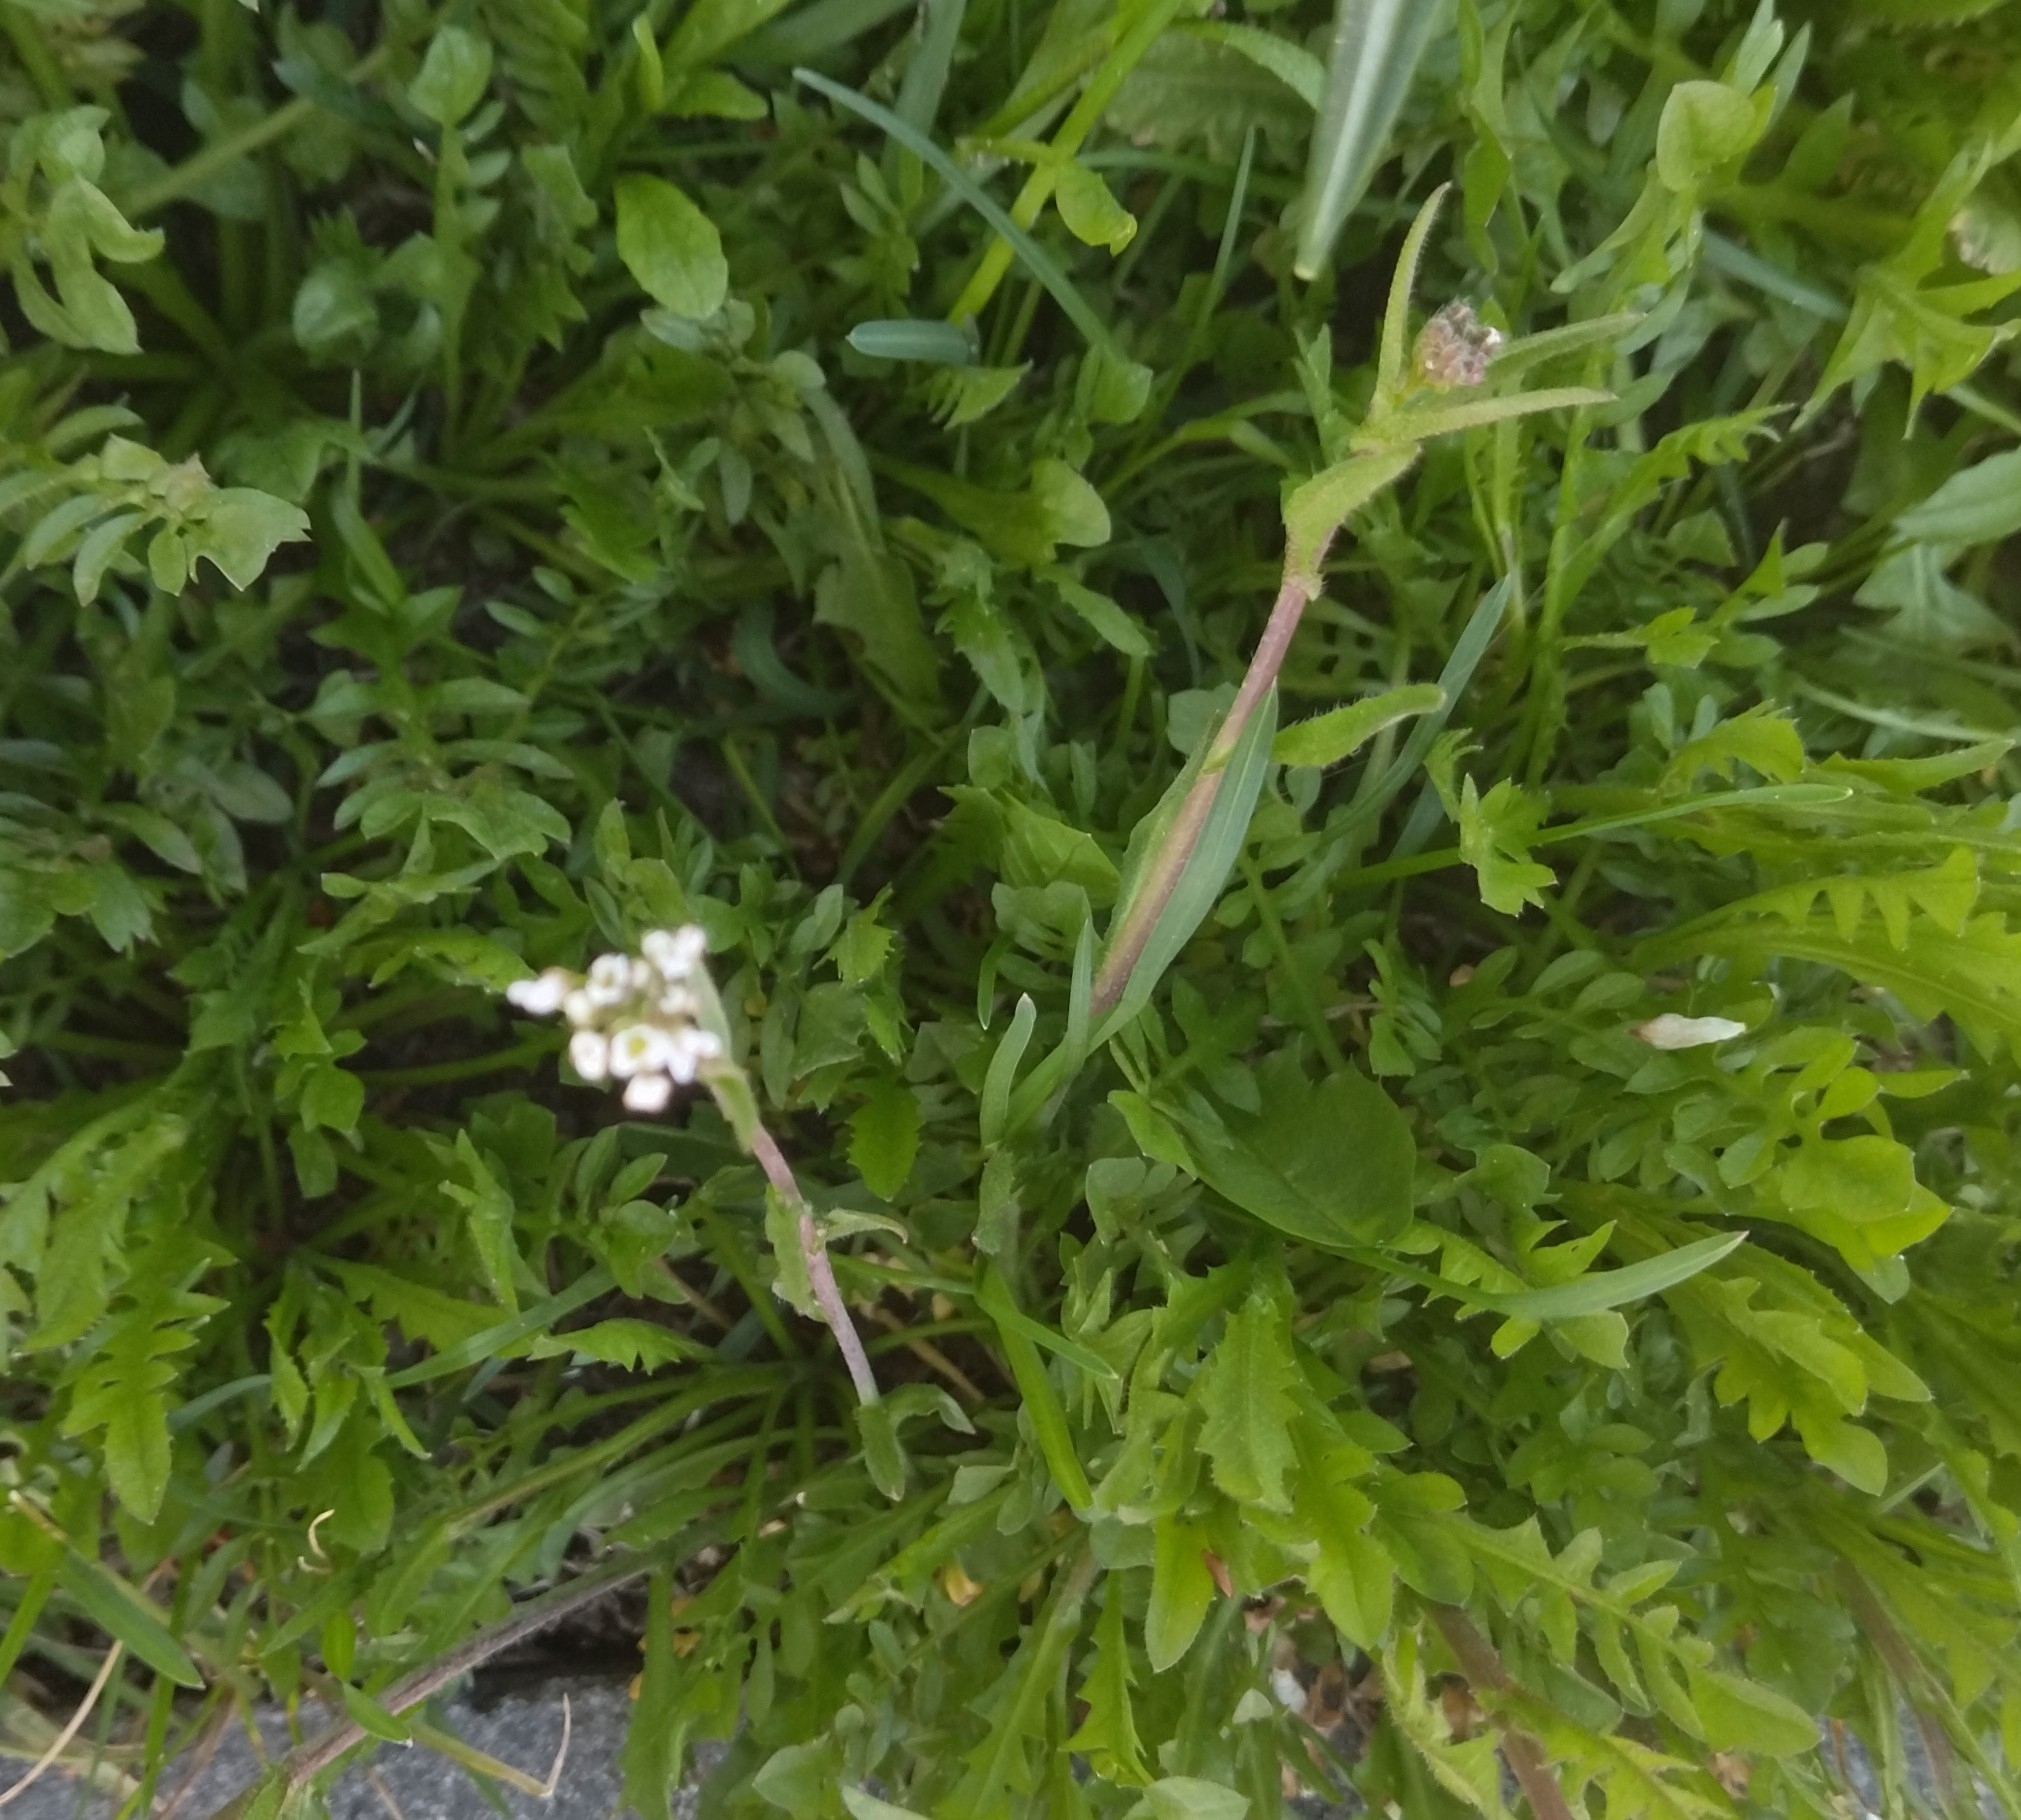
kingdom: Plantae
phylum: Tracheophyta
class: Magnoliopsida
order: Brassicales
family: Brassicaceae
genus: Capsella
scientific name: Capsella bursa-pastoris
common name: Shepherd's purse
